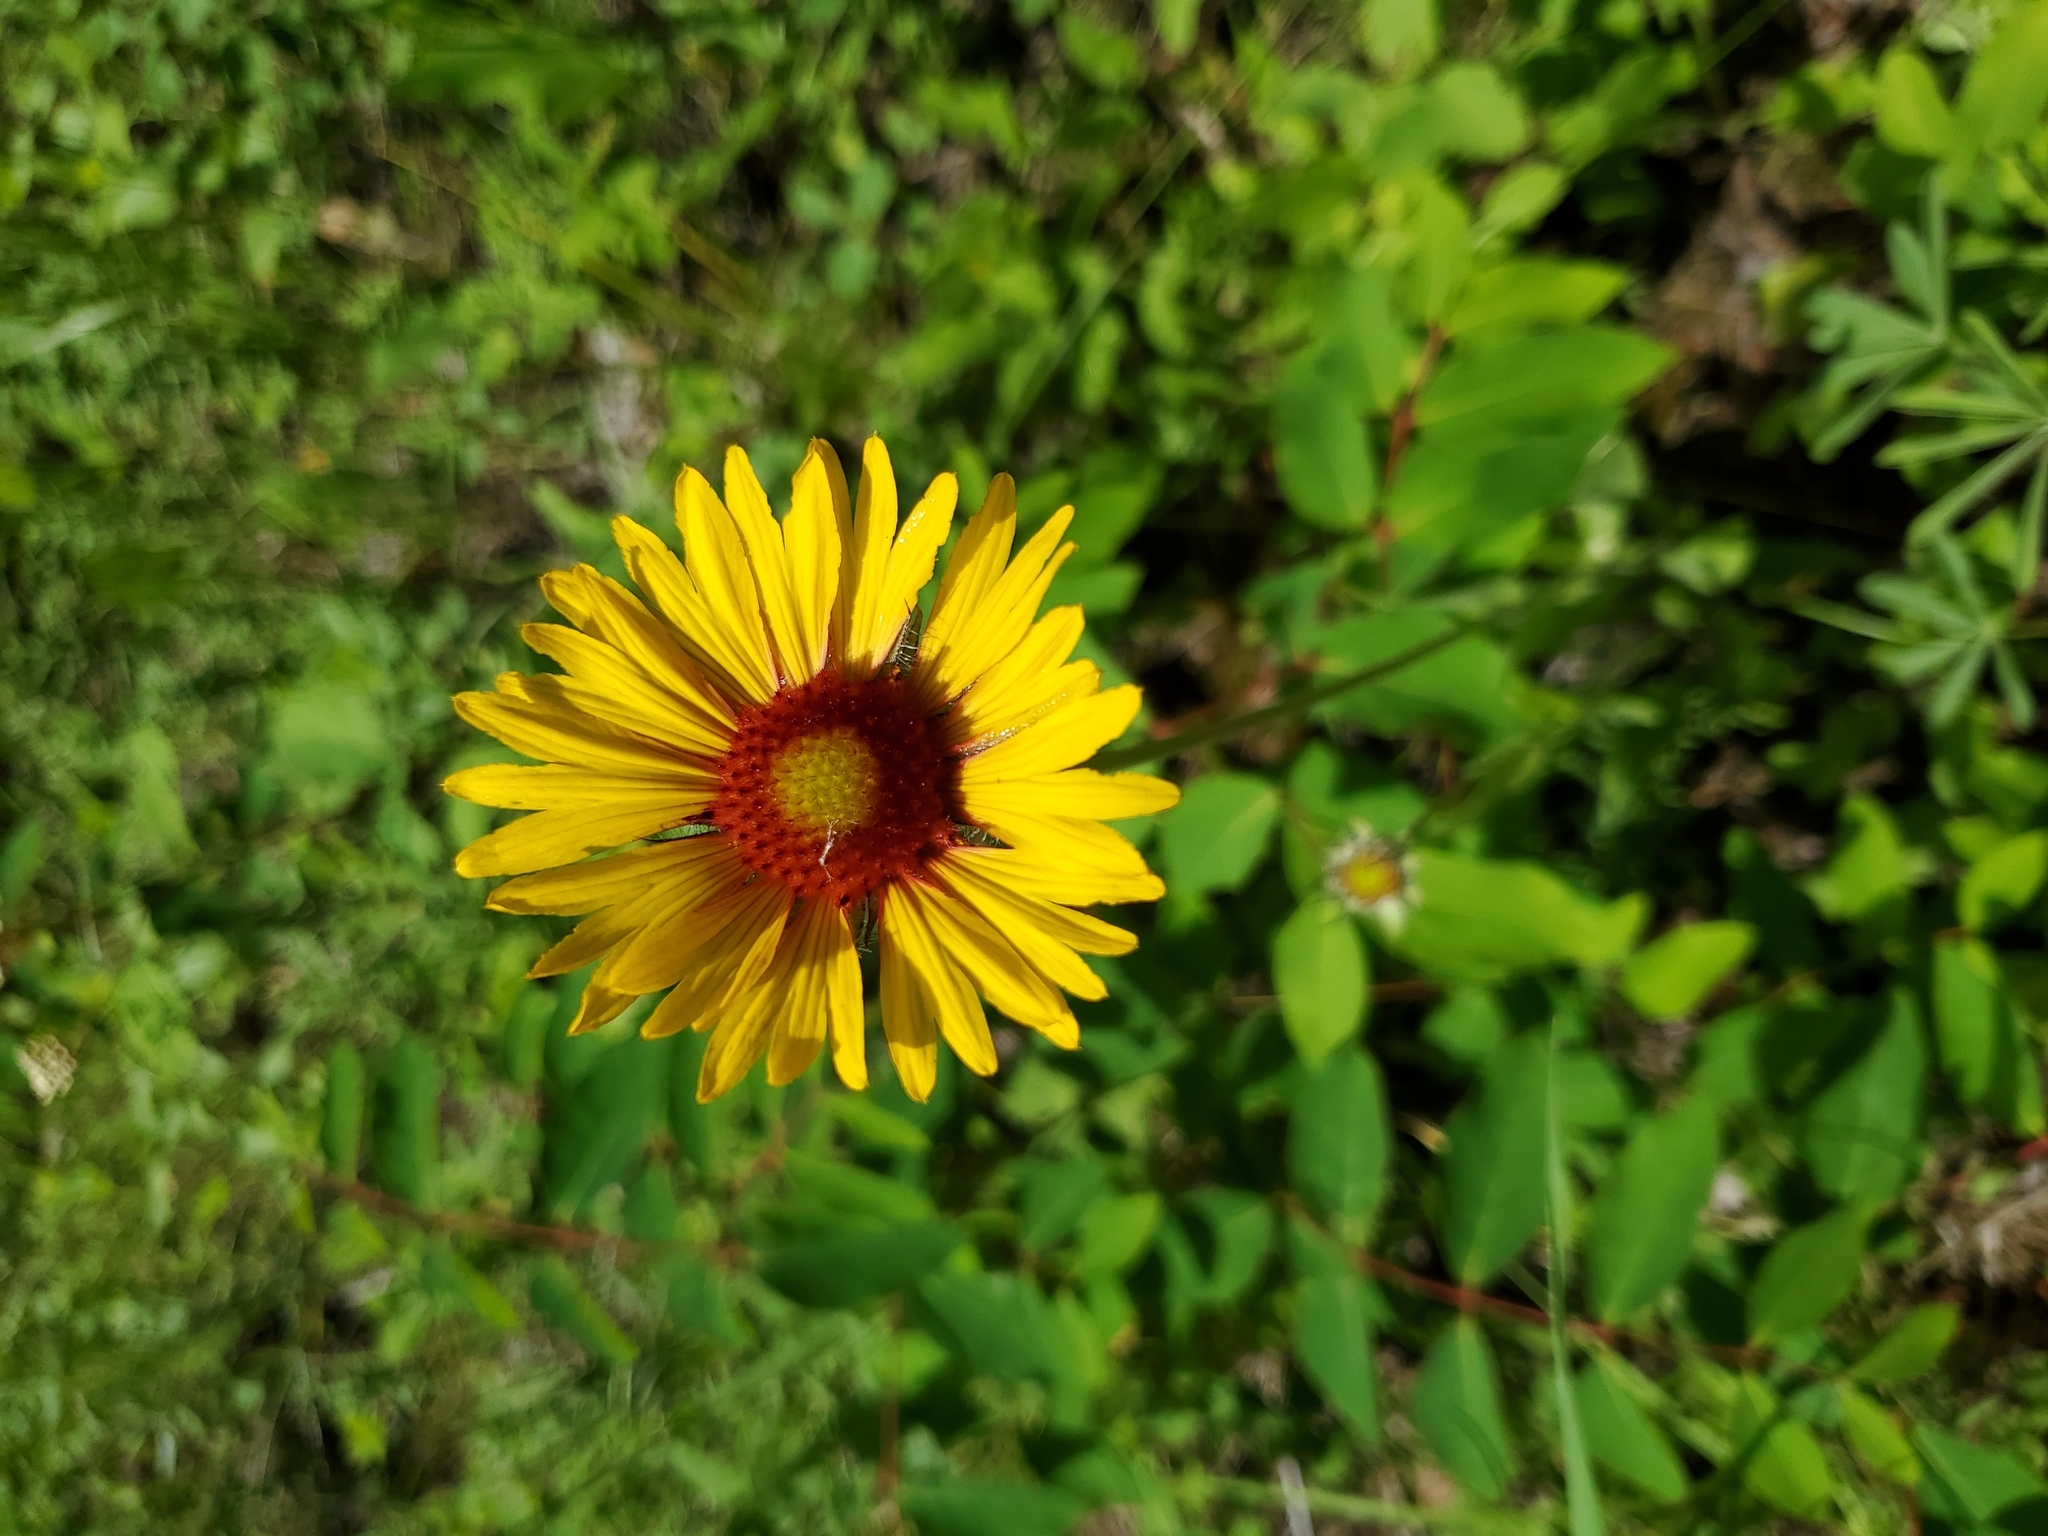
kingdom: Plantae
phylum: Tracheophyta
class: Magnoliopsida
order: Asterales
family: Asteraceae
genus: Gaillardia
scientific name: Gaillardia aristata
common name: Blanket-flower
